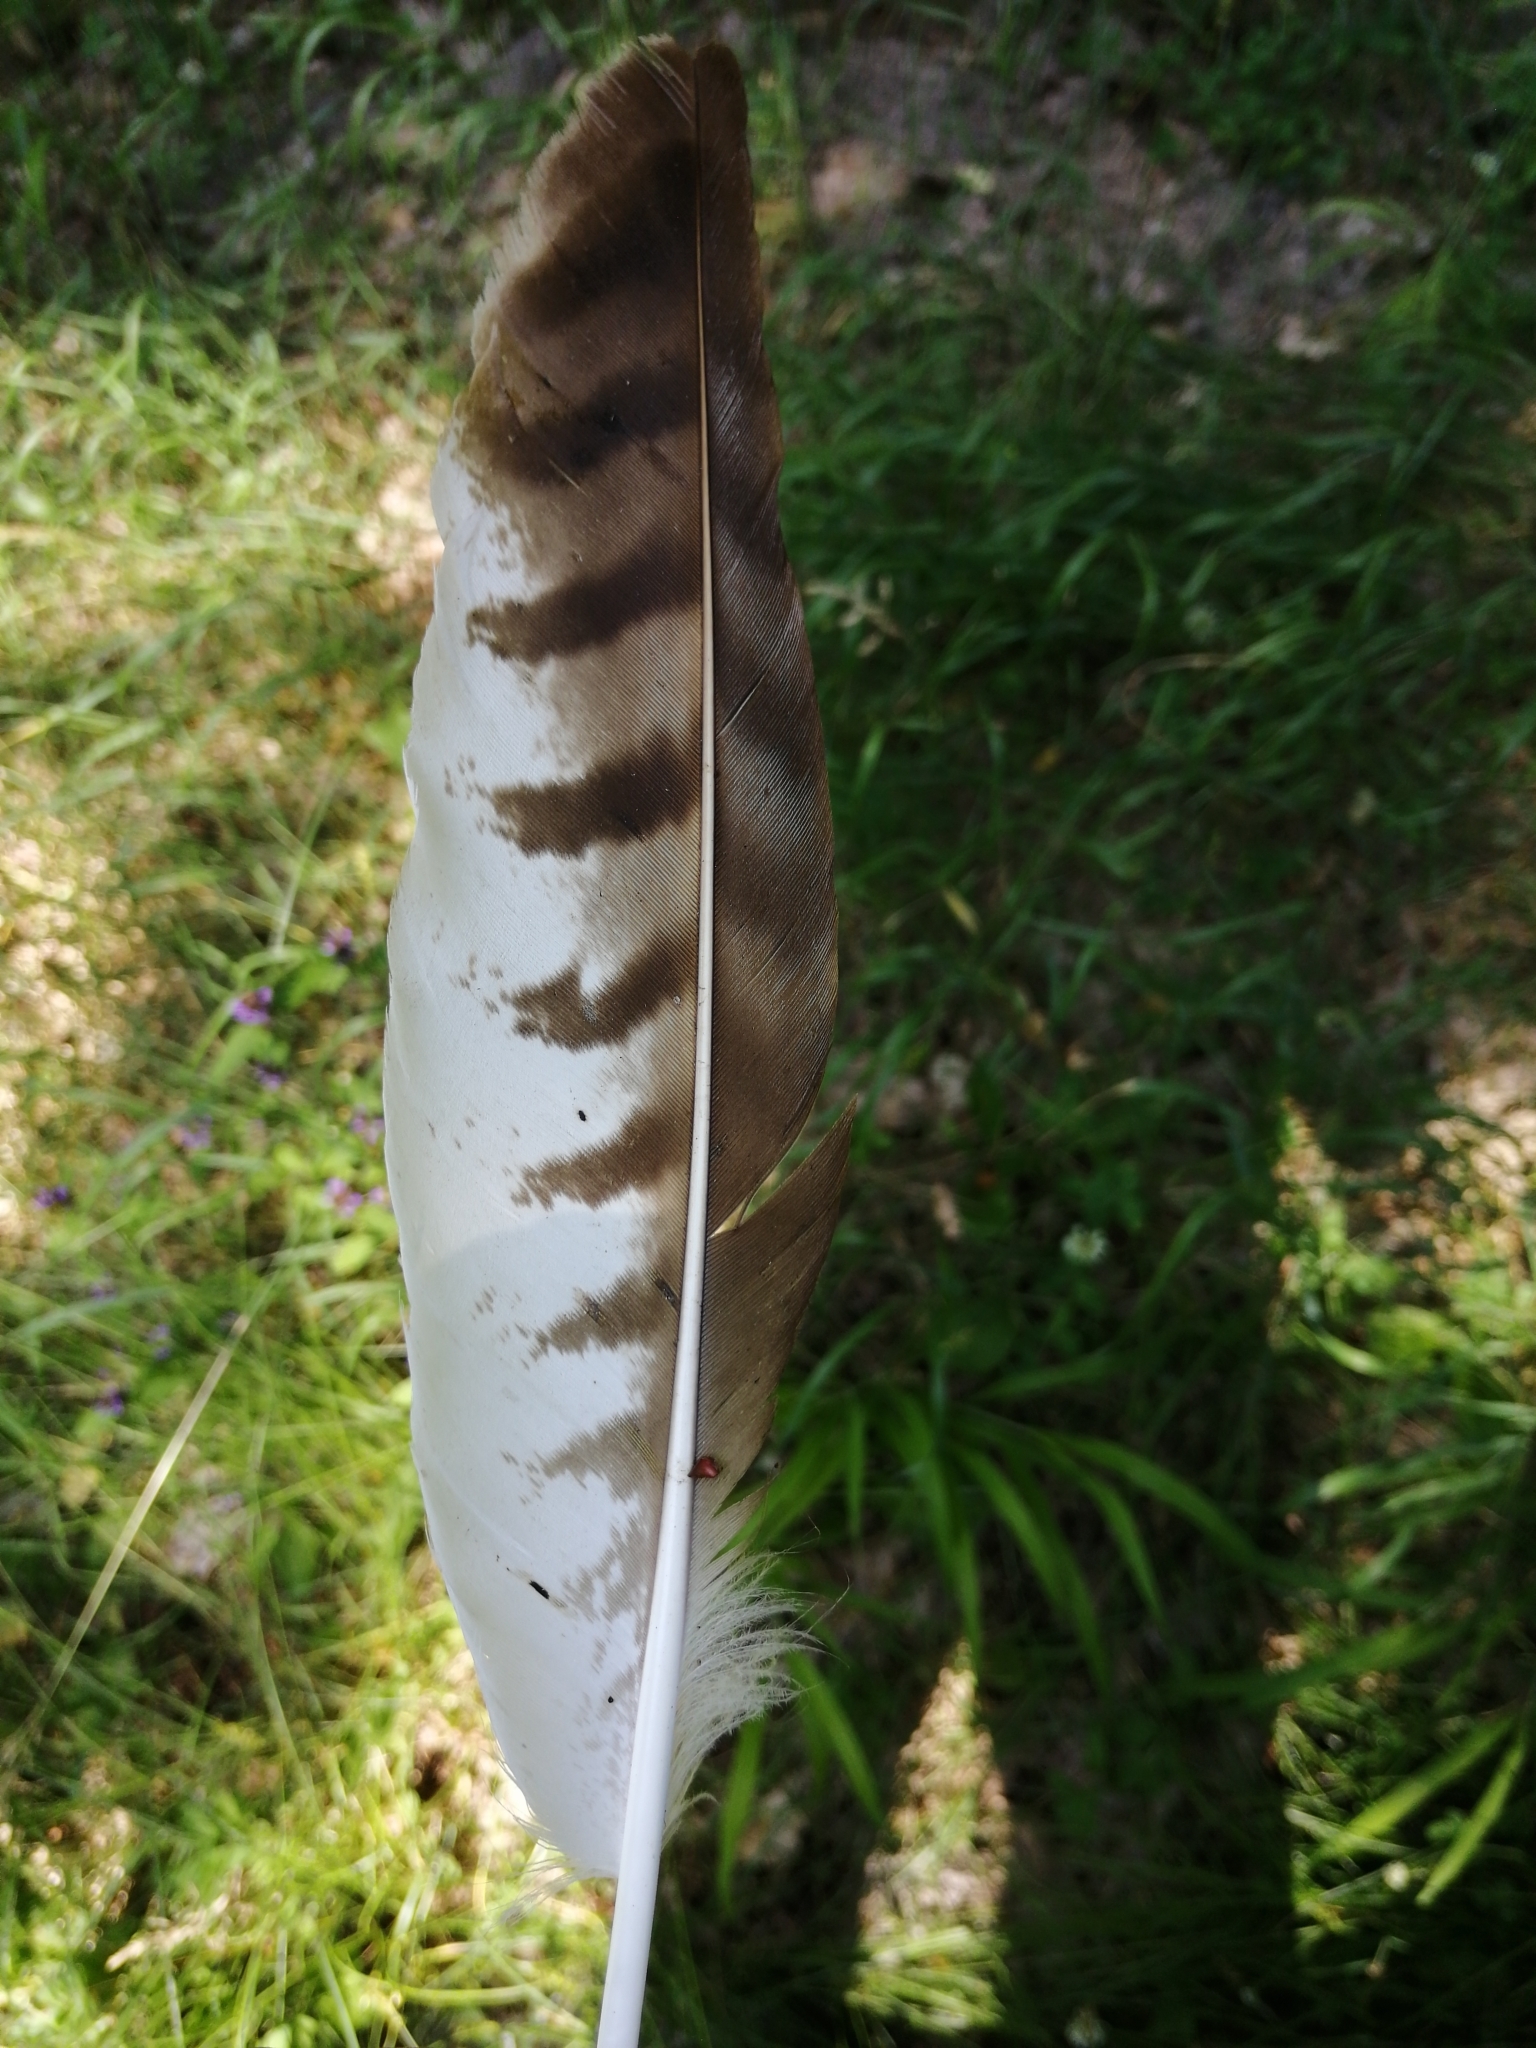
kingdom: Animalia
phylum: Chordata
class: Aves
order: Accipitriformes
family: Accipitridae
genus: Buteo
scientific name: Buteo buteo
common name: Common buzzard
